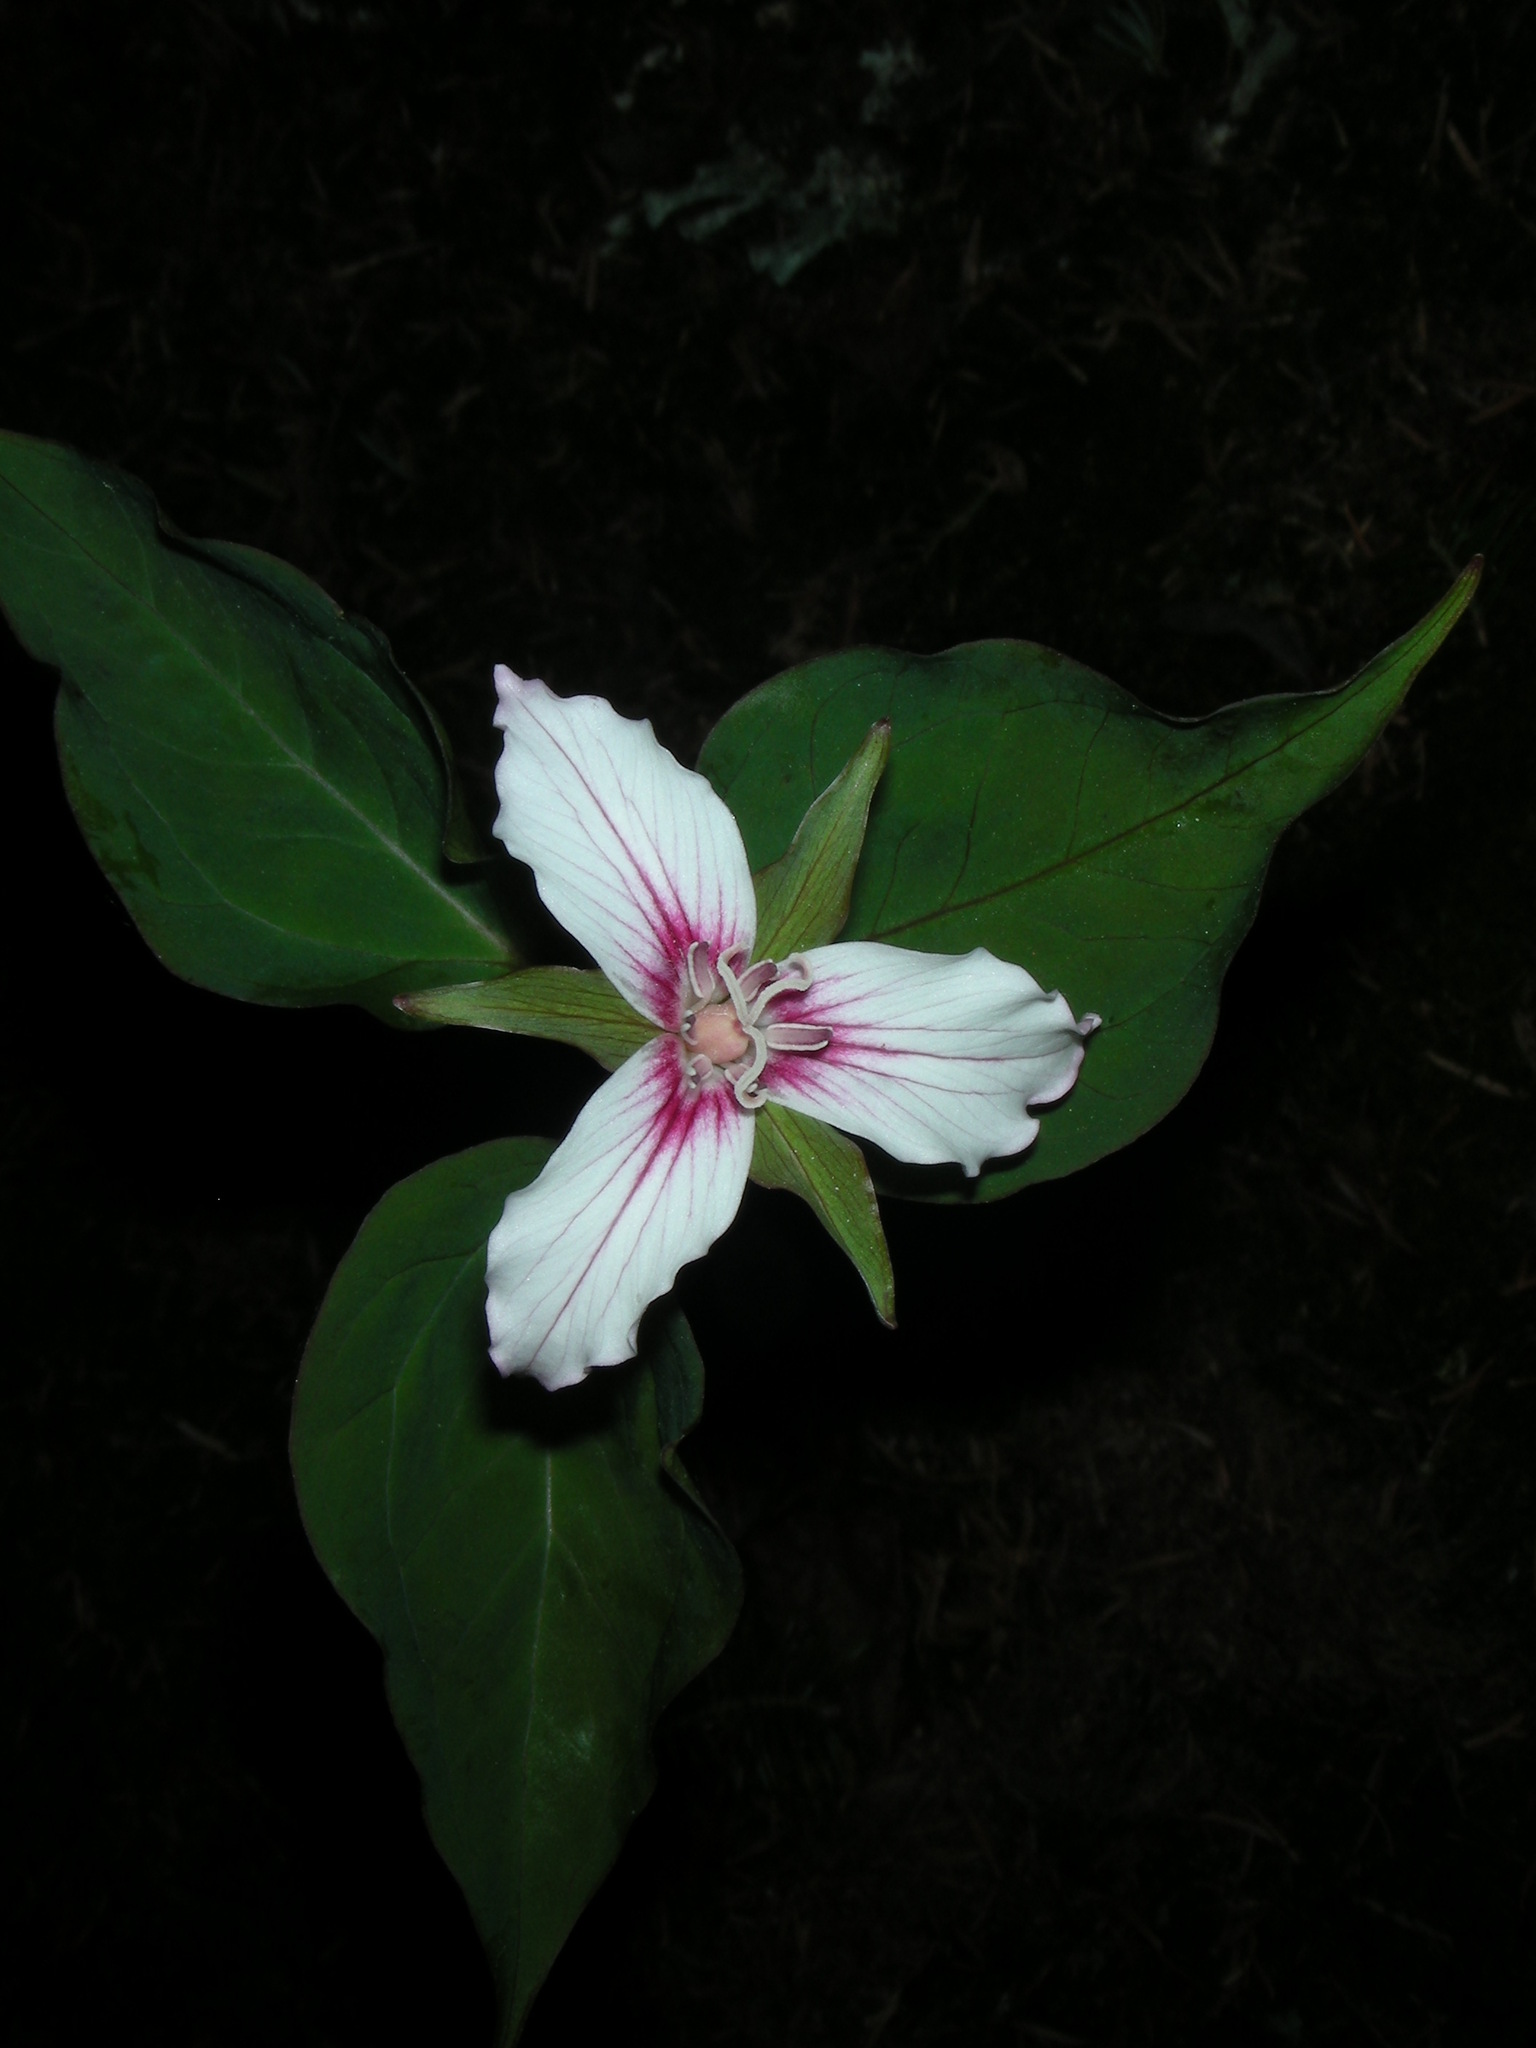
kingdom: Plantae
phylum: Tracheophyta
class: Liliopsida
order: Liliales
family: Melanthiaceae
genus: Trillium
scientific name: Trillium undulatum
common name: Paint trillium
